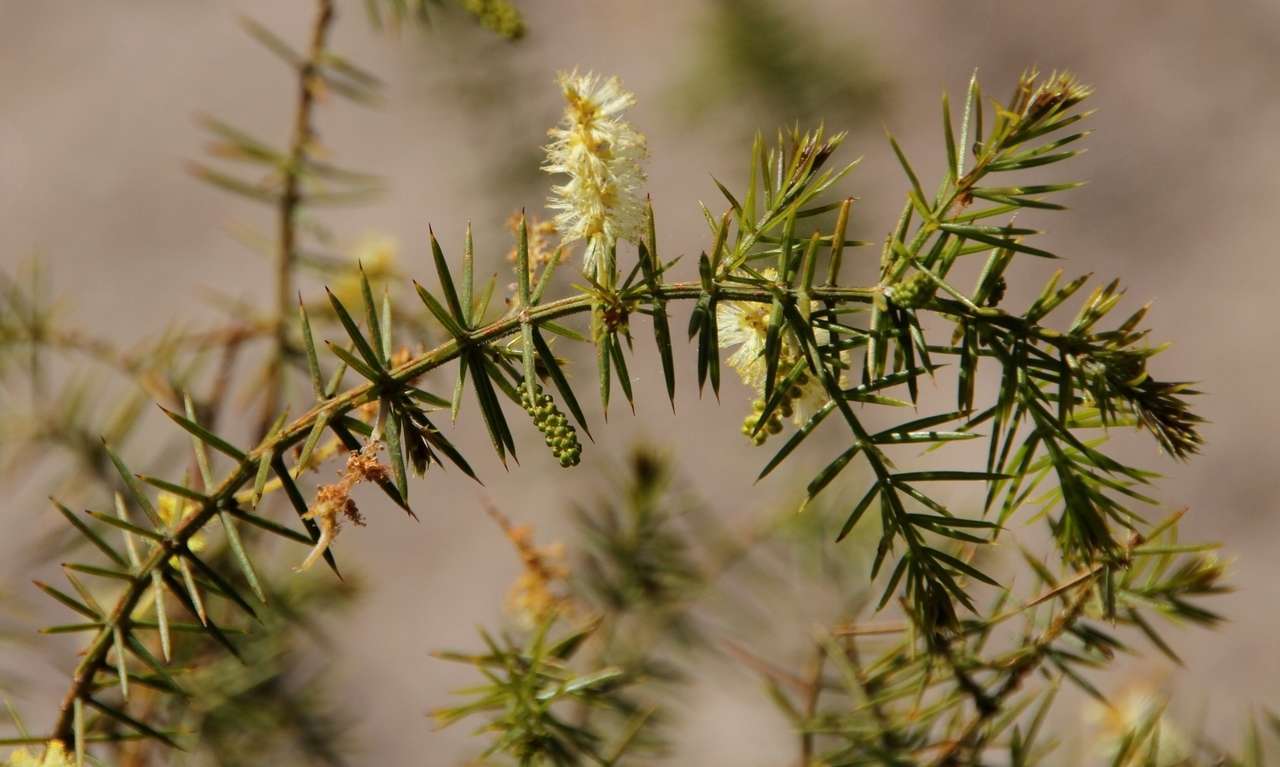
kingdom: Plantae
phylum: Tracheophyta
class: Magnoliopsida
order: Fabales
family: Fabaceae
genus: Acacia
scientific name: Acacia verticillata
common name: Prickly moses
